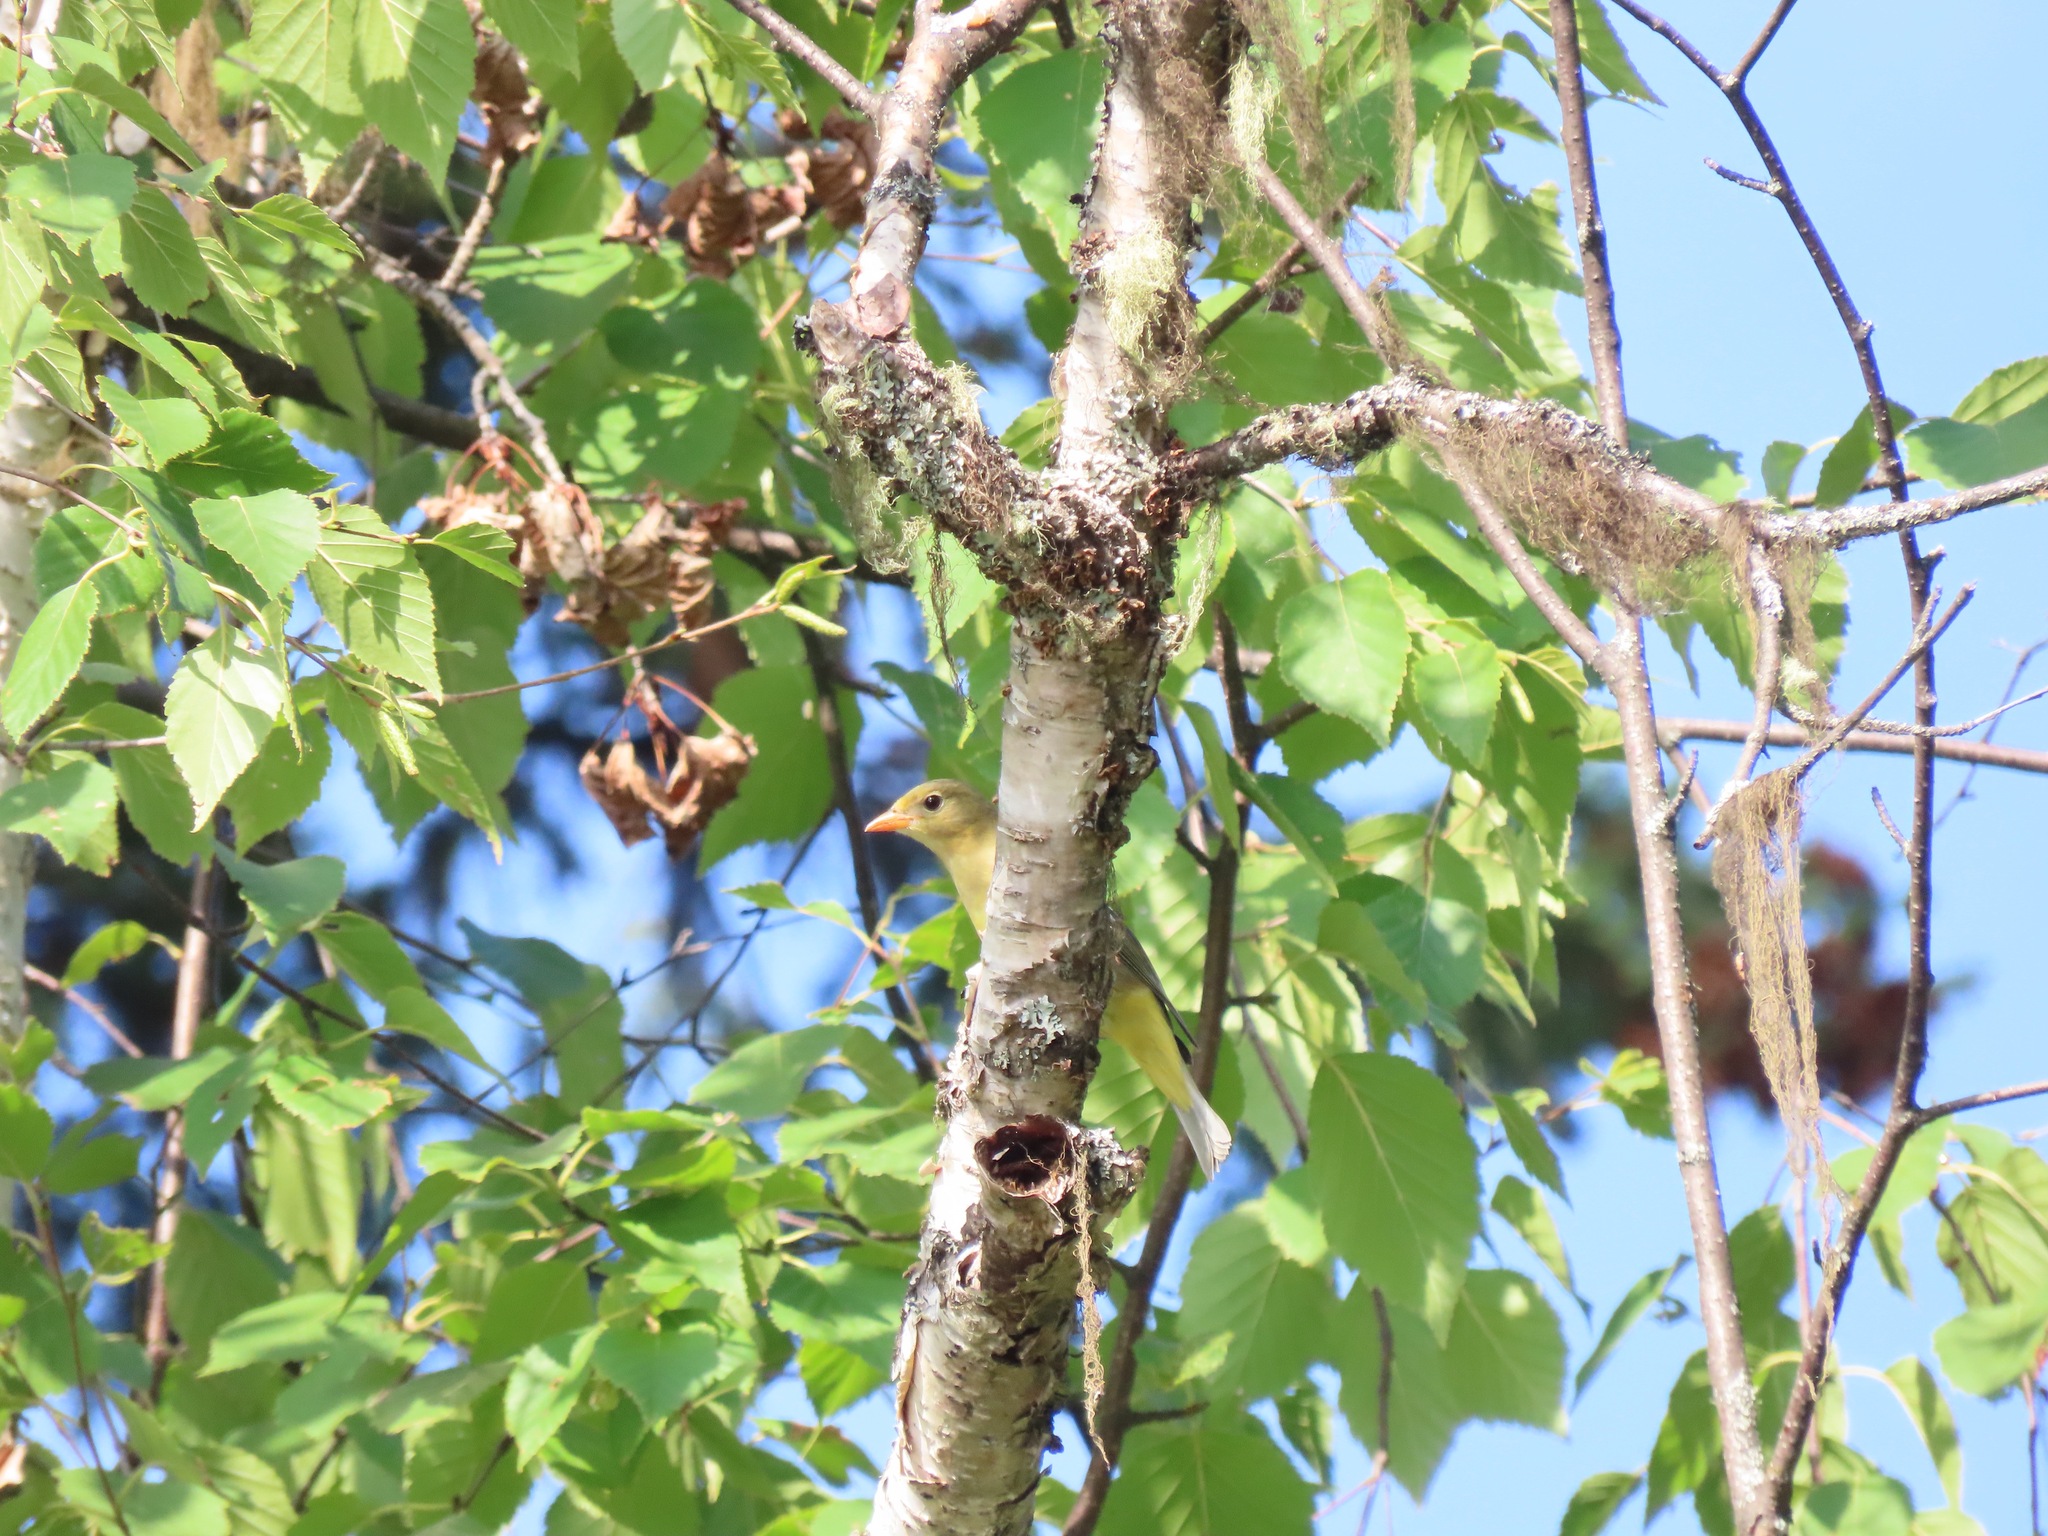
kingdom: Animalia
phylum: Chordata
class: Aves
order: Passeriformes
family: Cardinalidae
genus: Piranga
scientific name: Piranga ludoviciana
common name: Western tanager
